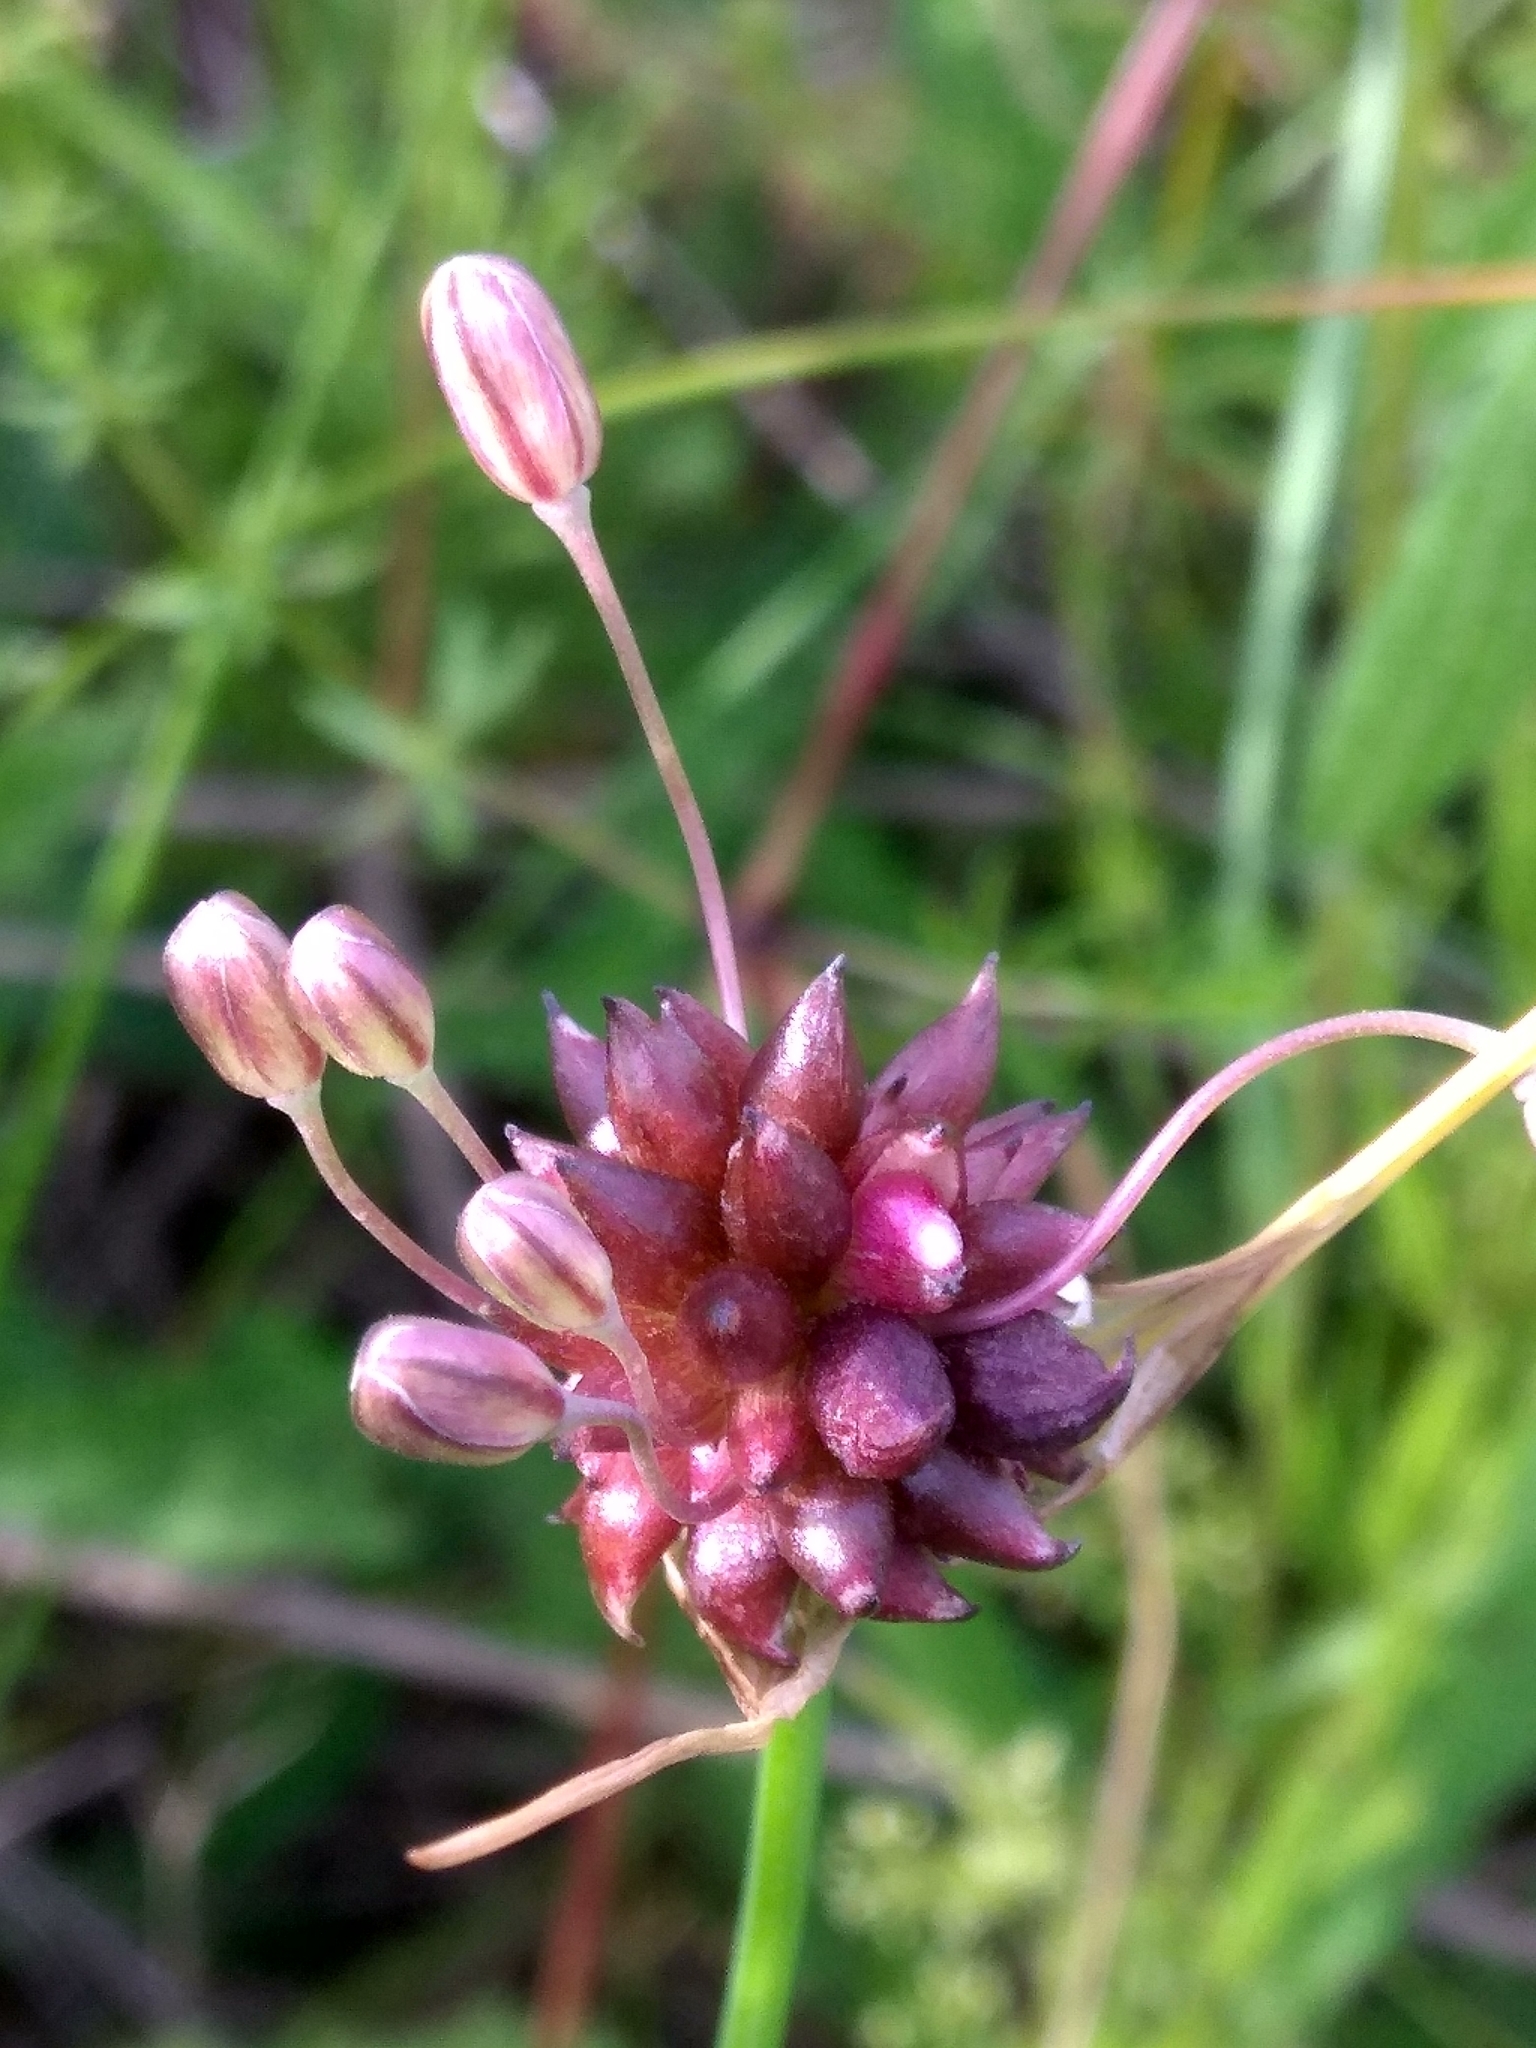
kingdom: Plantae
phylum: Tracheophyta
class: Liliopsida
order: Asparagales
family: Amaryllidaceae
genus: Allium
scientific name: Allium oleraceum
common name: Field garlic
